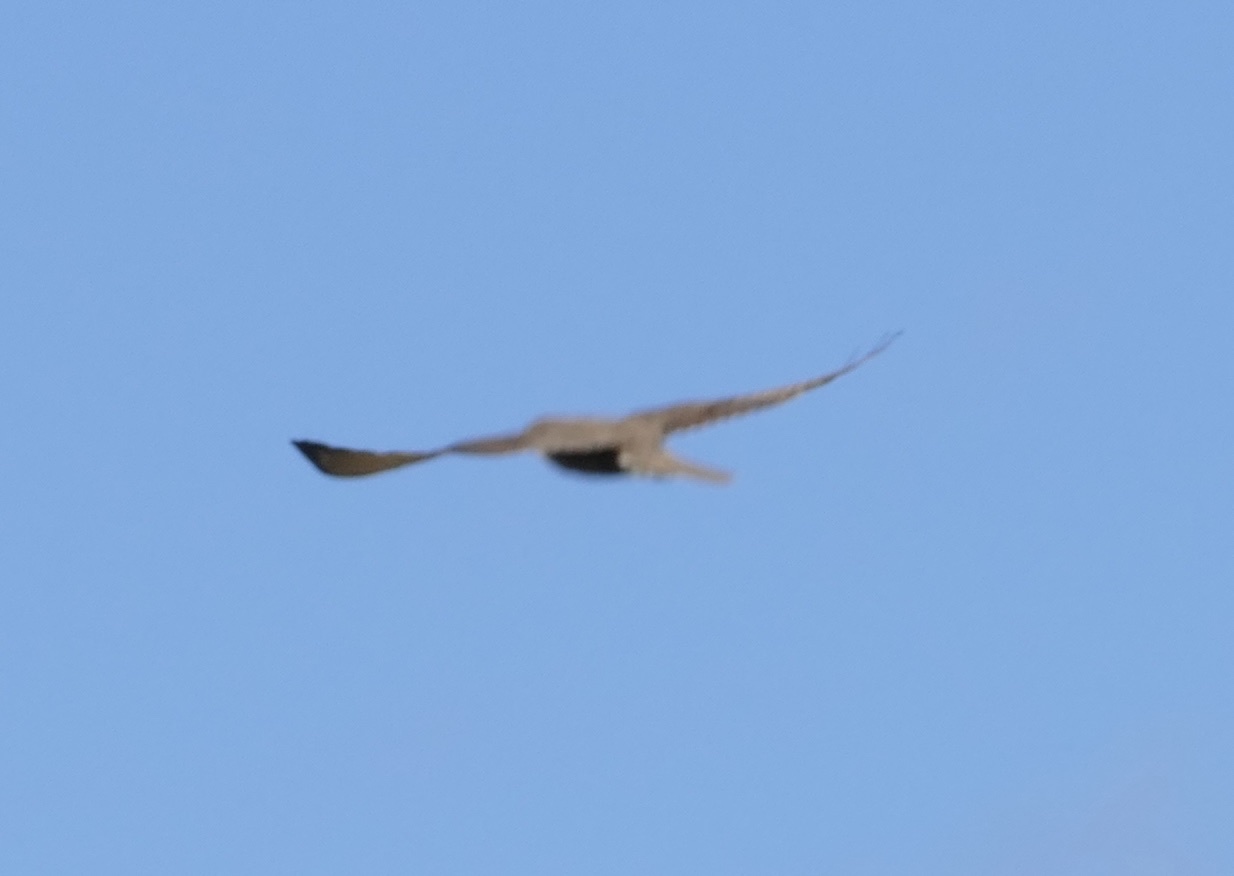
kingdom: Animalia
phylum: Chordata
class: Aves
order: Falconiformes
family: Falconidae
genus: Falco
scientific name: Falco berigora
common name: Brown falcon
